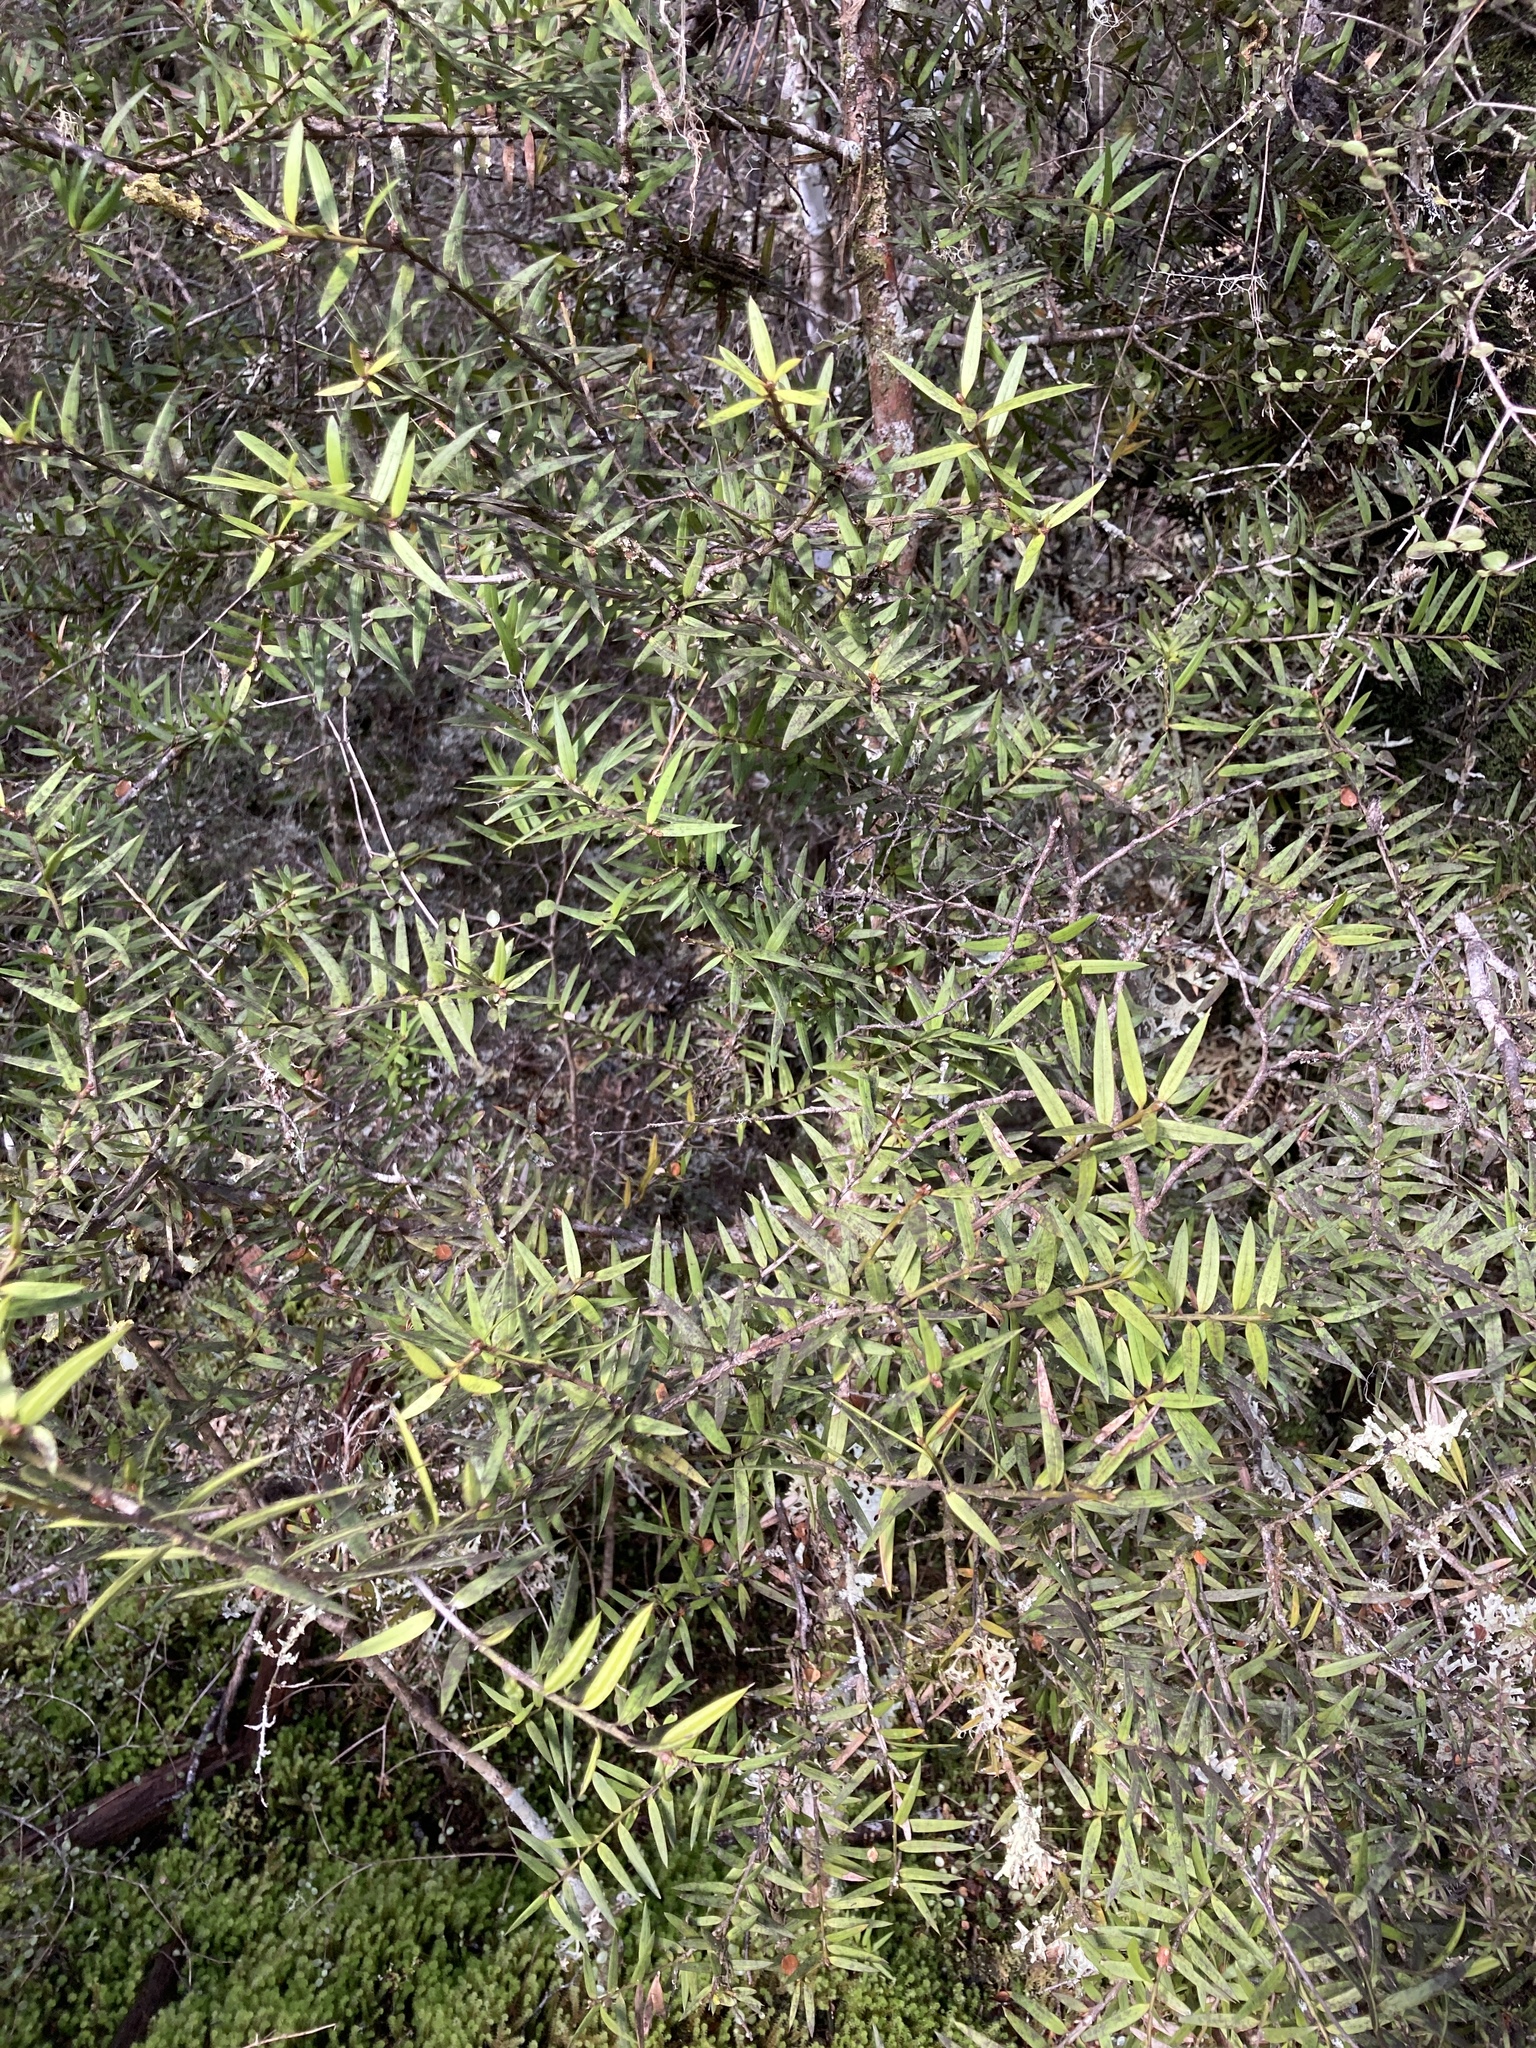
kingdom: Plantae
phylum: Tracheophyta
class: Pinopsida
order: Pinales
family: Podocarpaceae
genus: Podocarpus
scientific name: Podocarpus laetus
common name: Hall's totara
